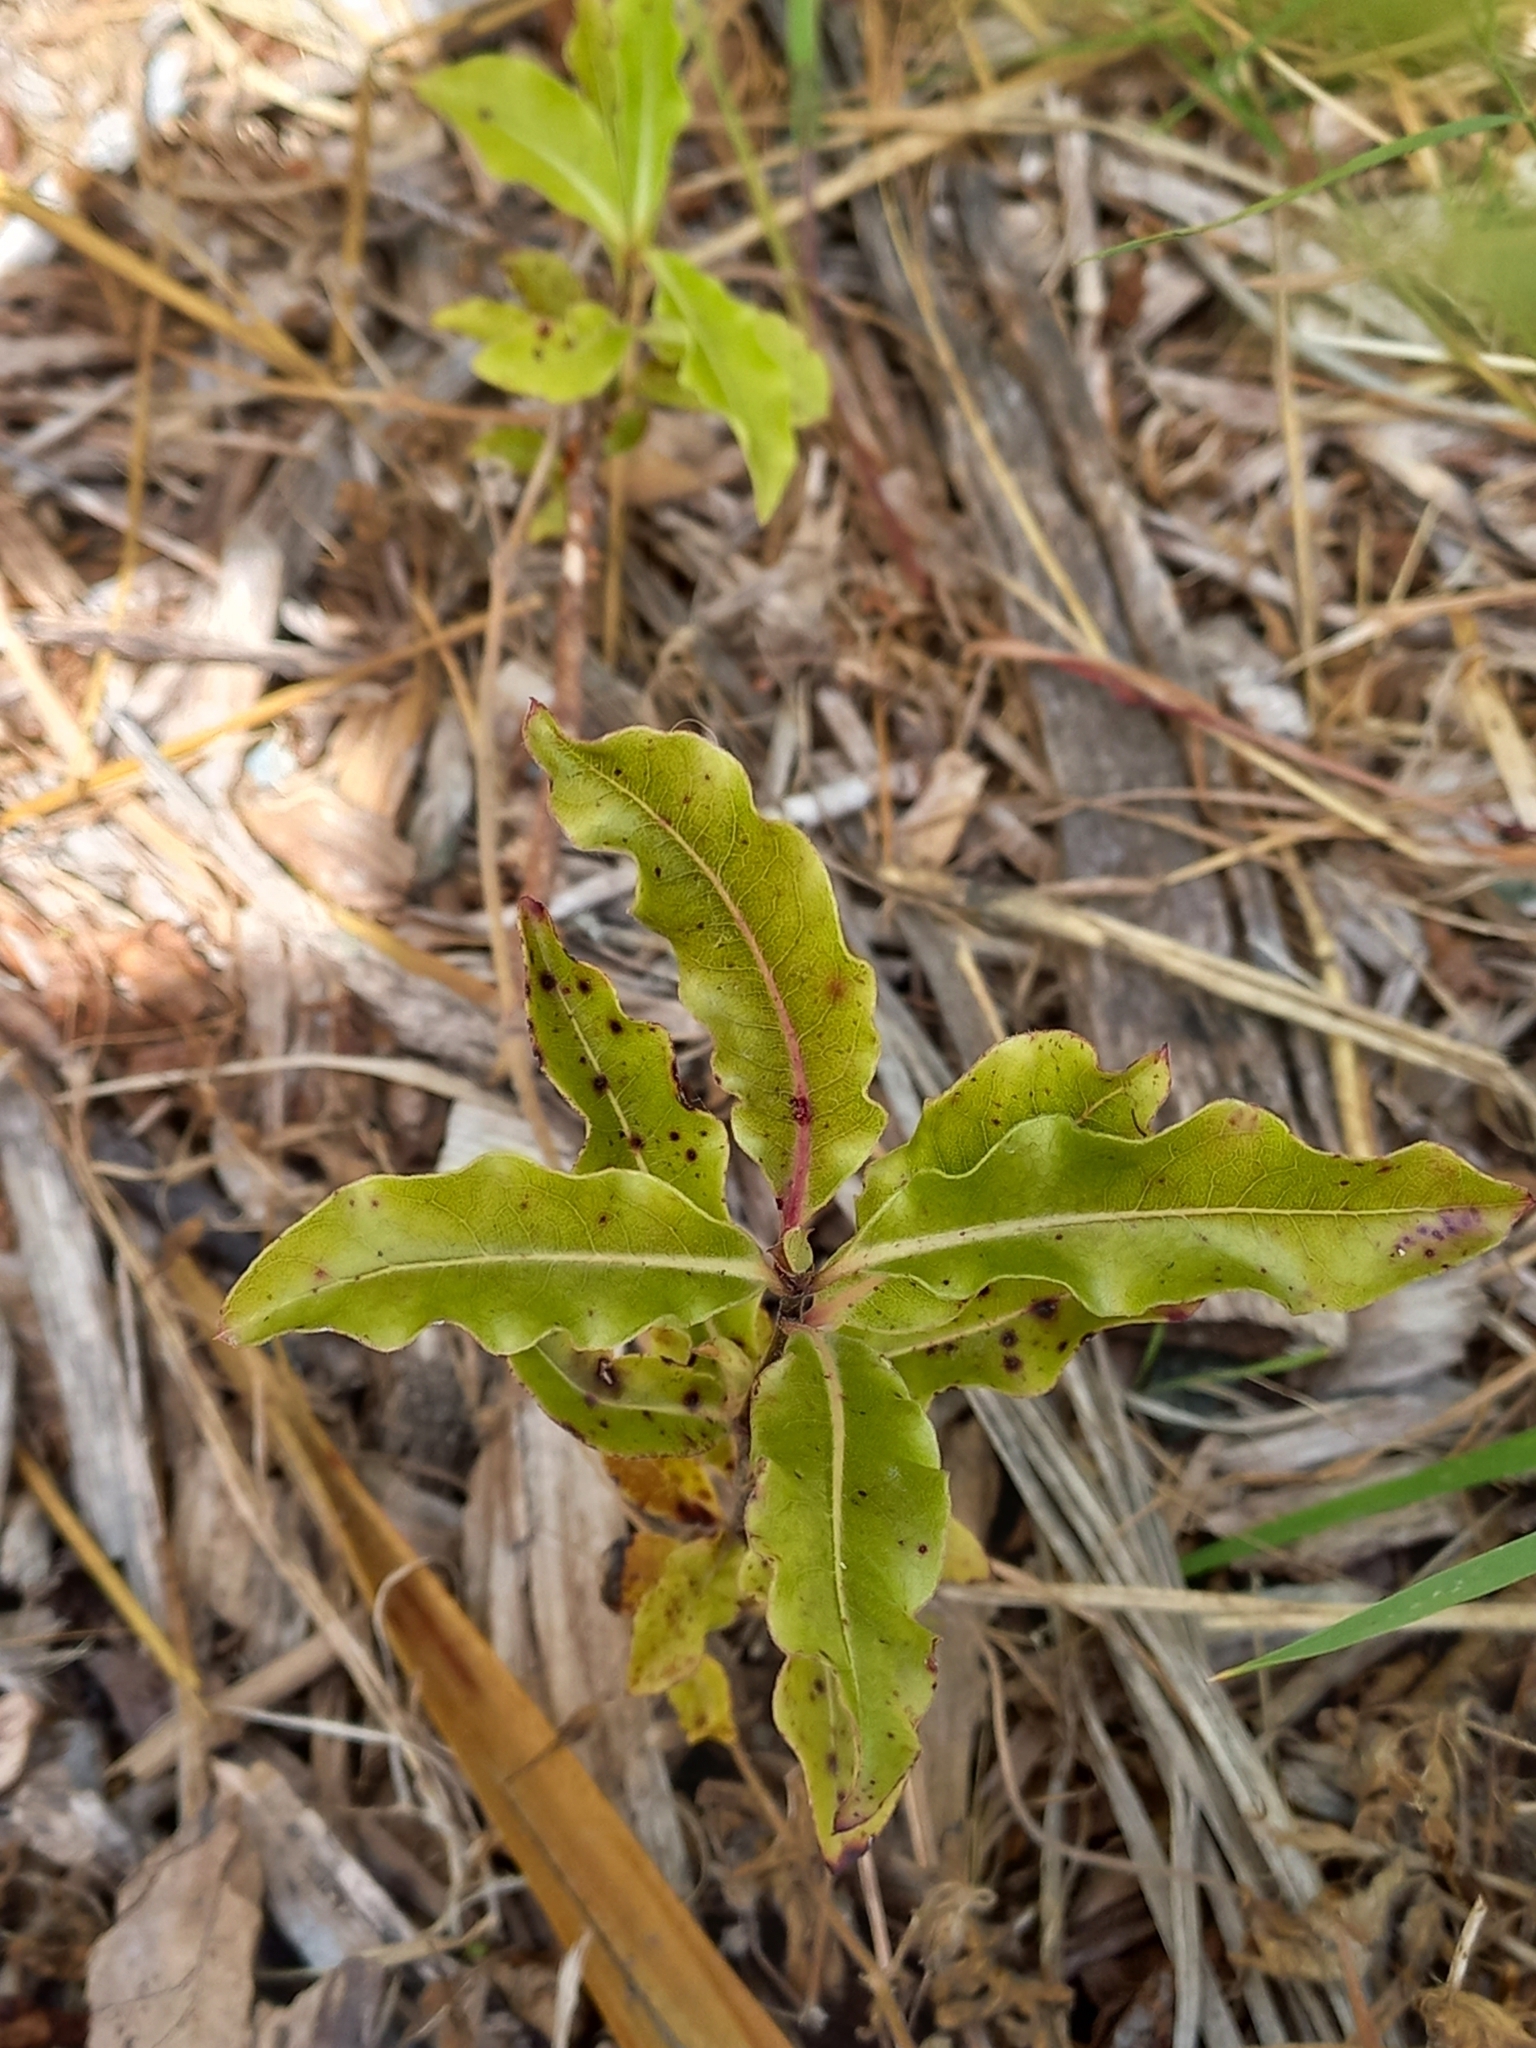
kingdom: Plantae
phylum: Tracheophyta
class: Magnoliopsida
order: Apiales
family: Pittosporaceae
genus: Pittosporum
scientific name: Pittosporum eugenioides
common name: Lemonwood
